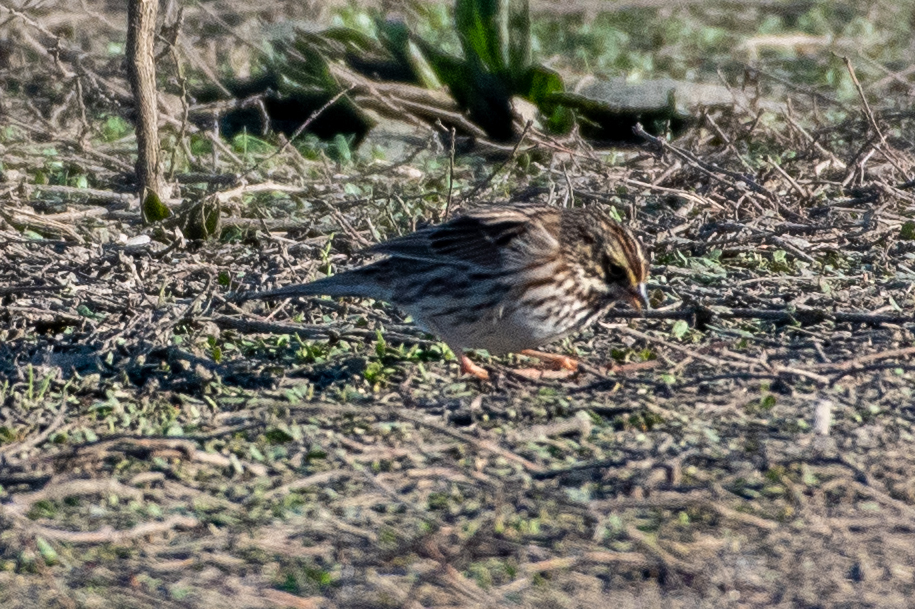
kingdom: Animalia
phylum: Chordata
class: Aves
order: Passeriformes
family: Passerellidae
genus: Passerculus
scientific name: Passerculus sandwichensis
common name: Savannah sparrow
